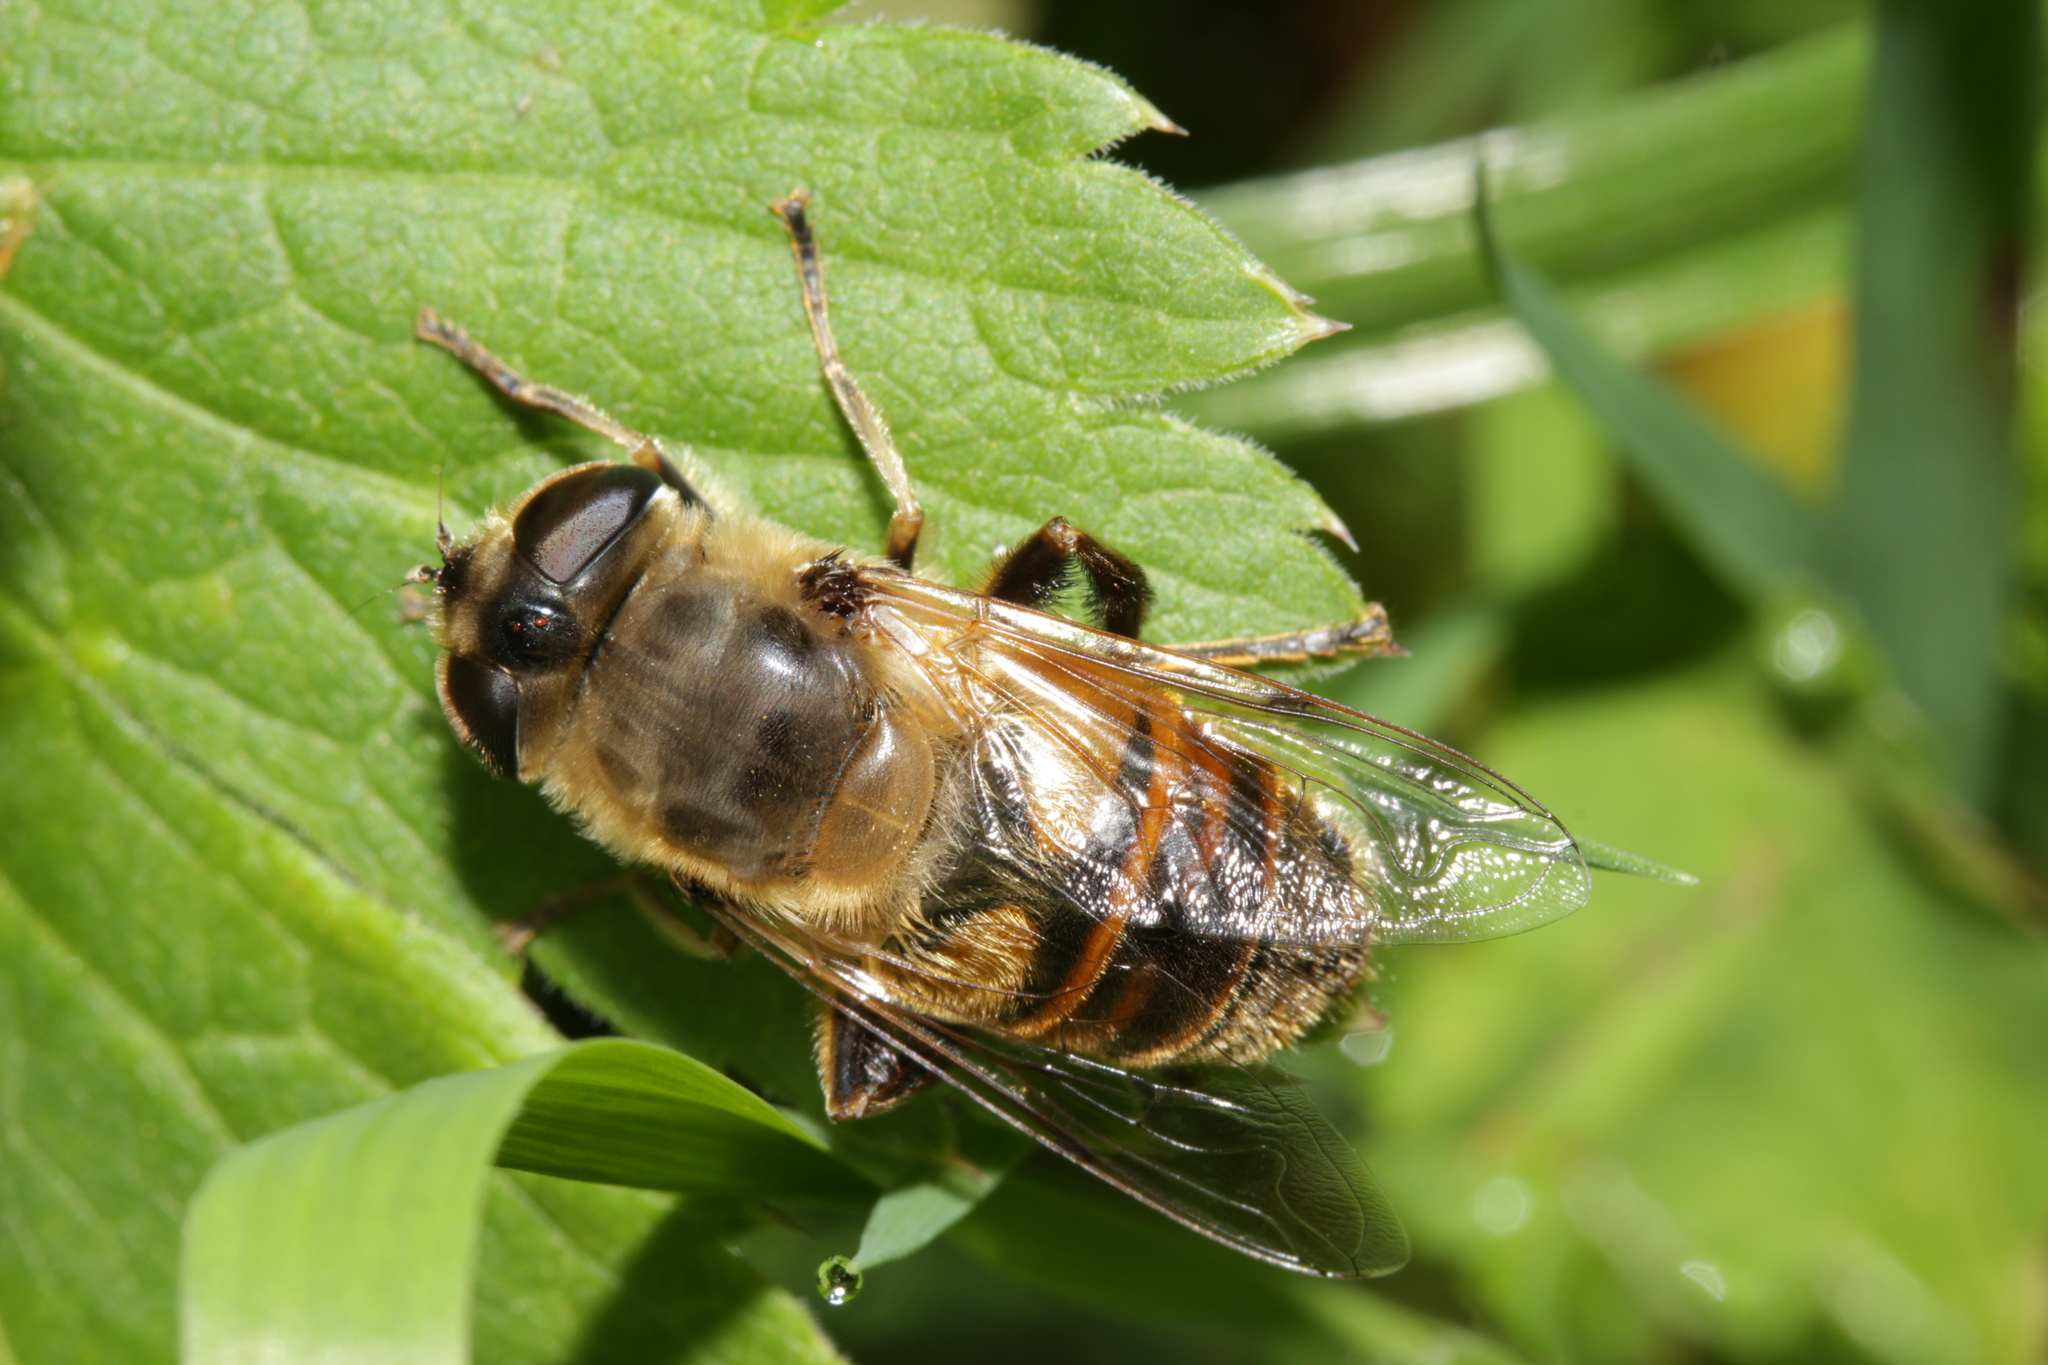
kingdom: Animalia
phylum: Arthropoda
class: Insecta
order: Diptera
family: Syrphidae
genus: Eristalis
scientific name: Eristalis tenax
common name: Drone fly
